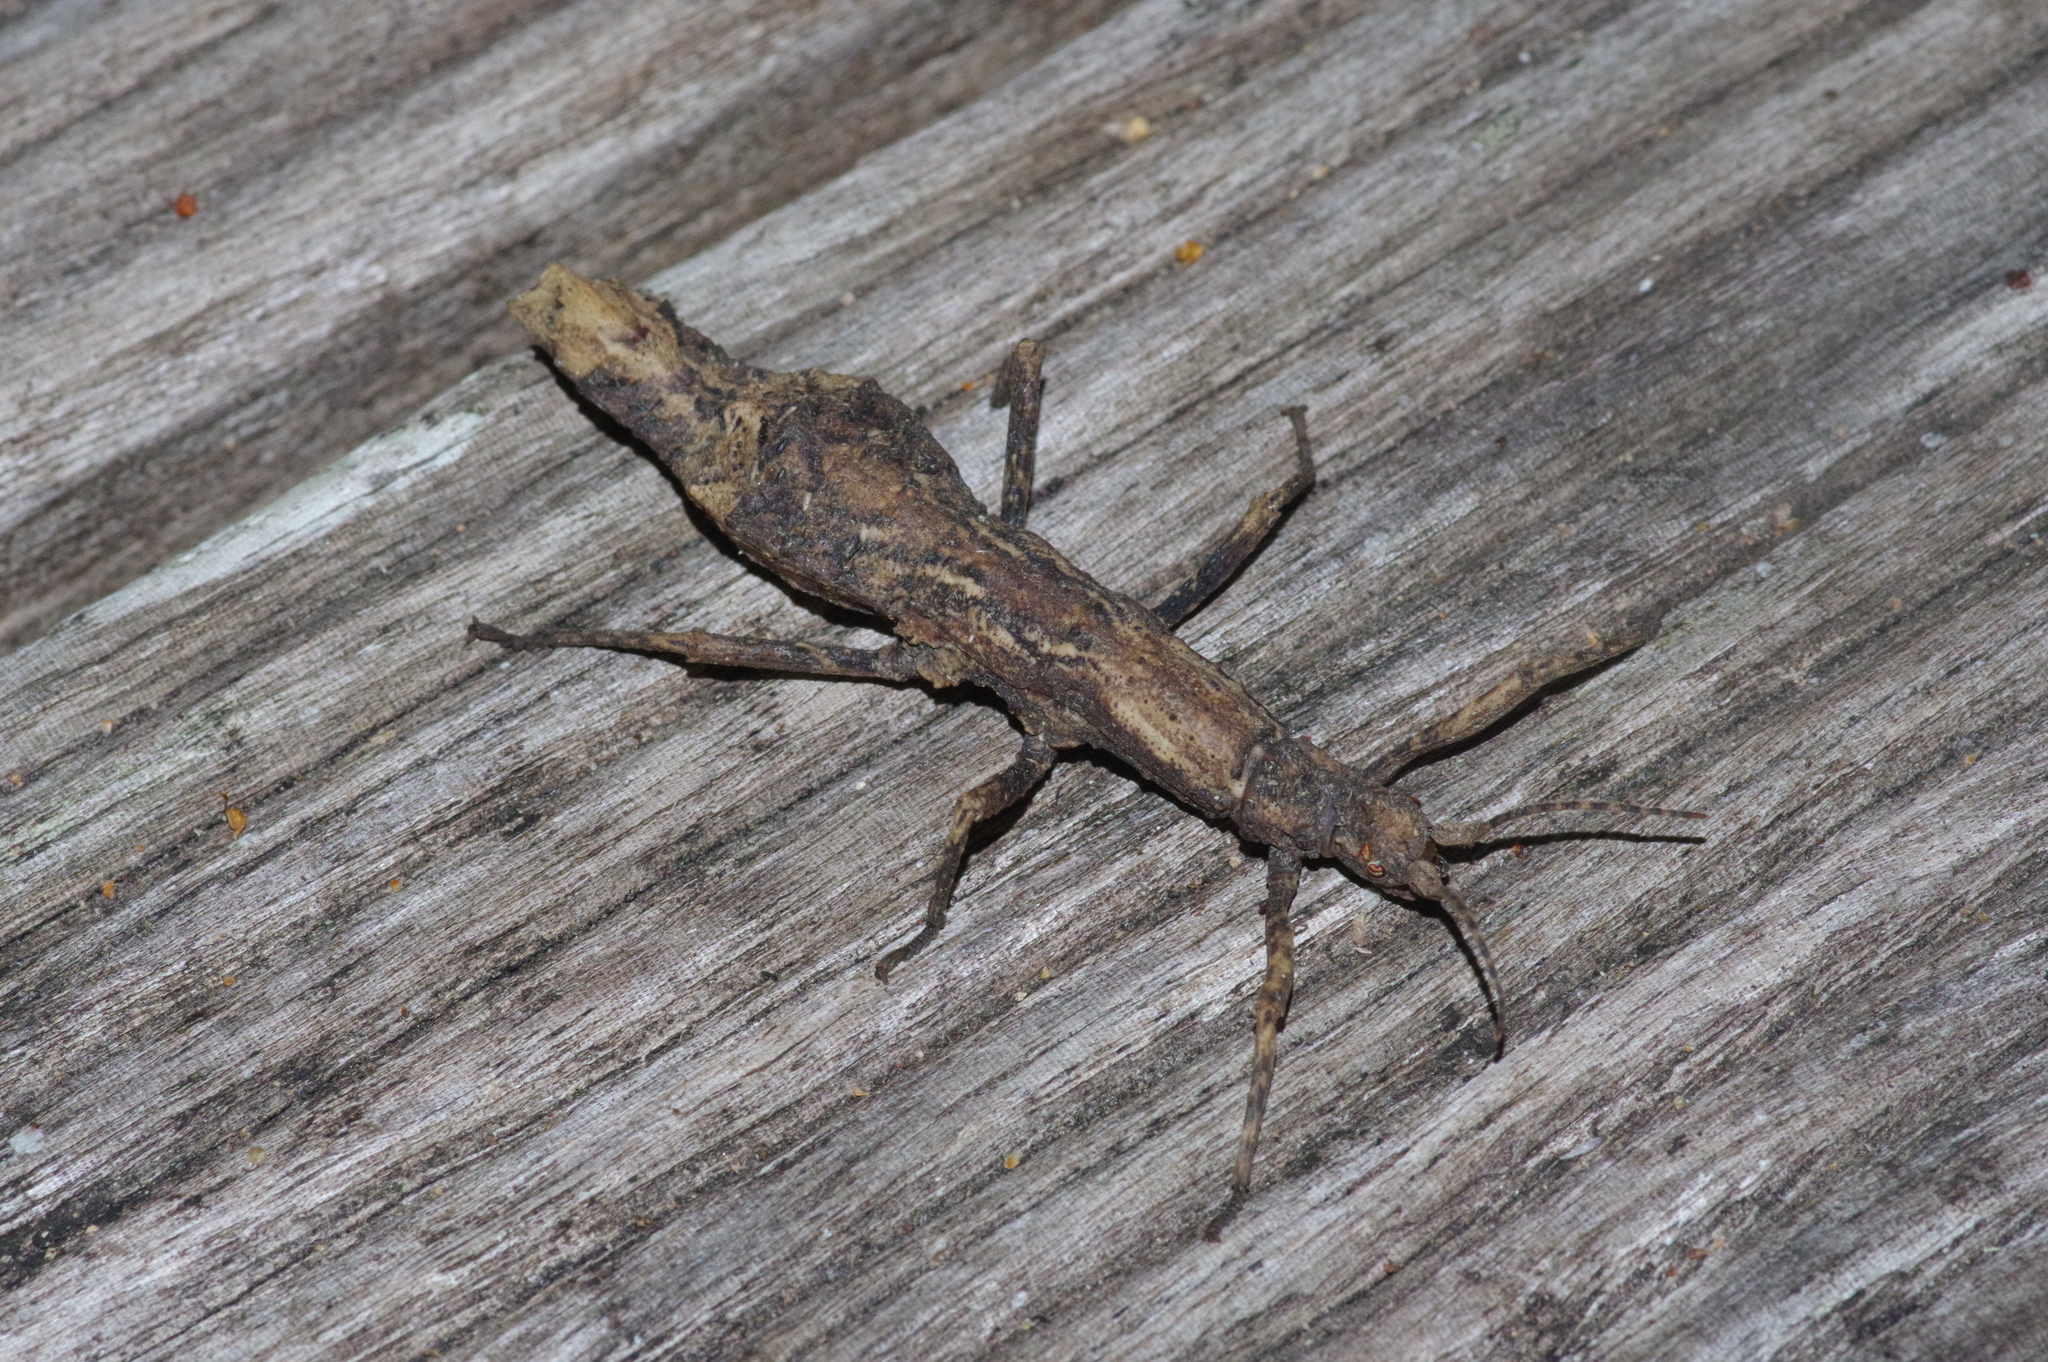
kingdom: Animalia
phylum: Arthropoda
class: Insecta
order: Phasmida
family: Heteropterygidae
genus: Orestes
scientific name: Orestes japonicus
